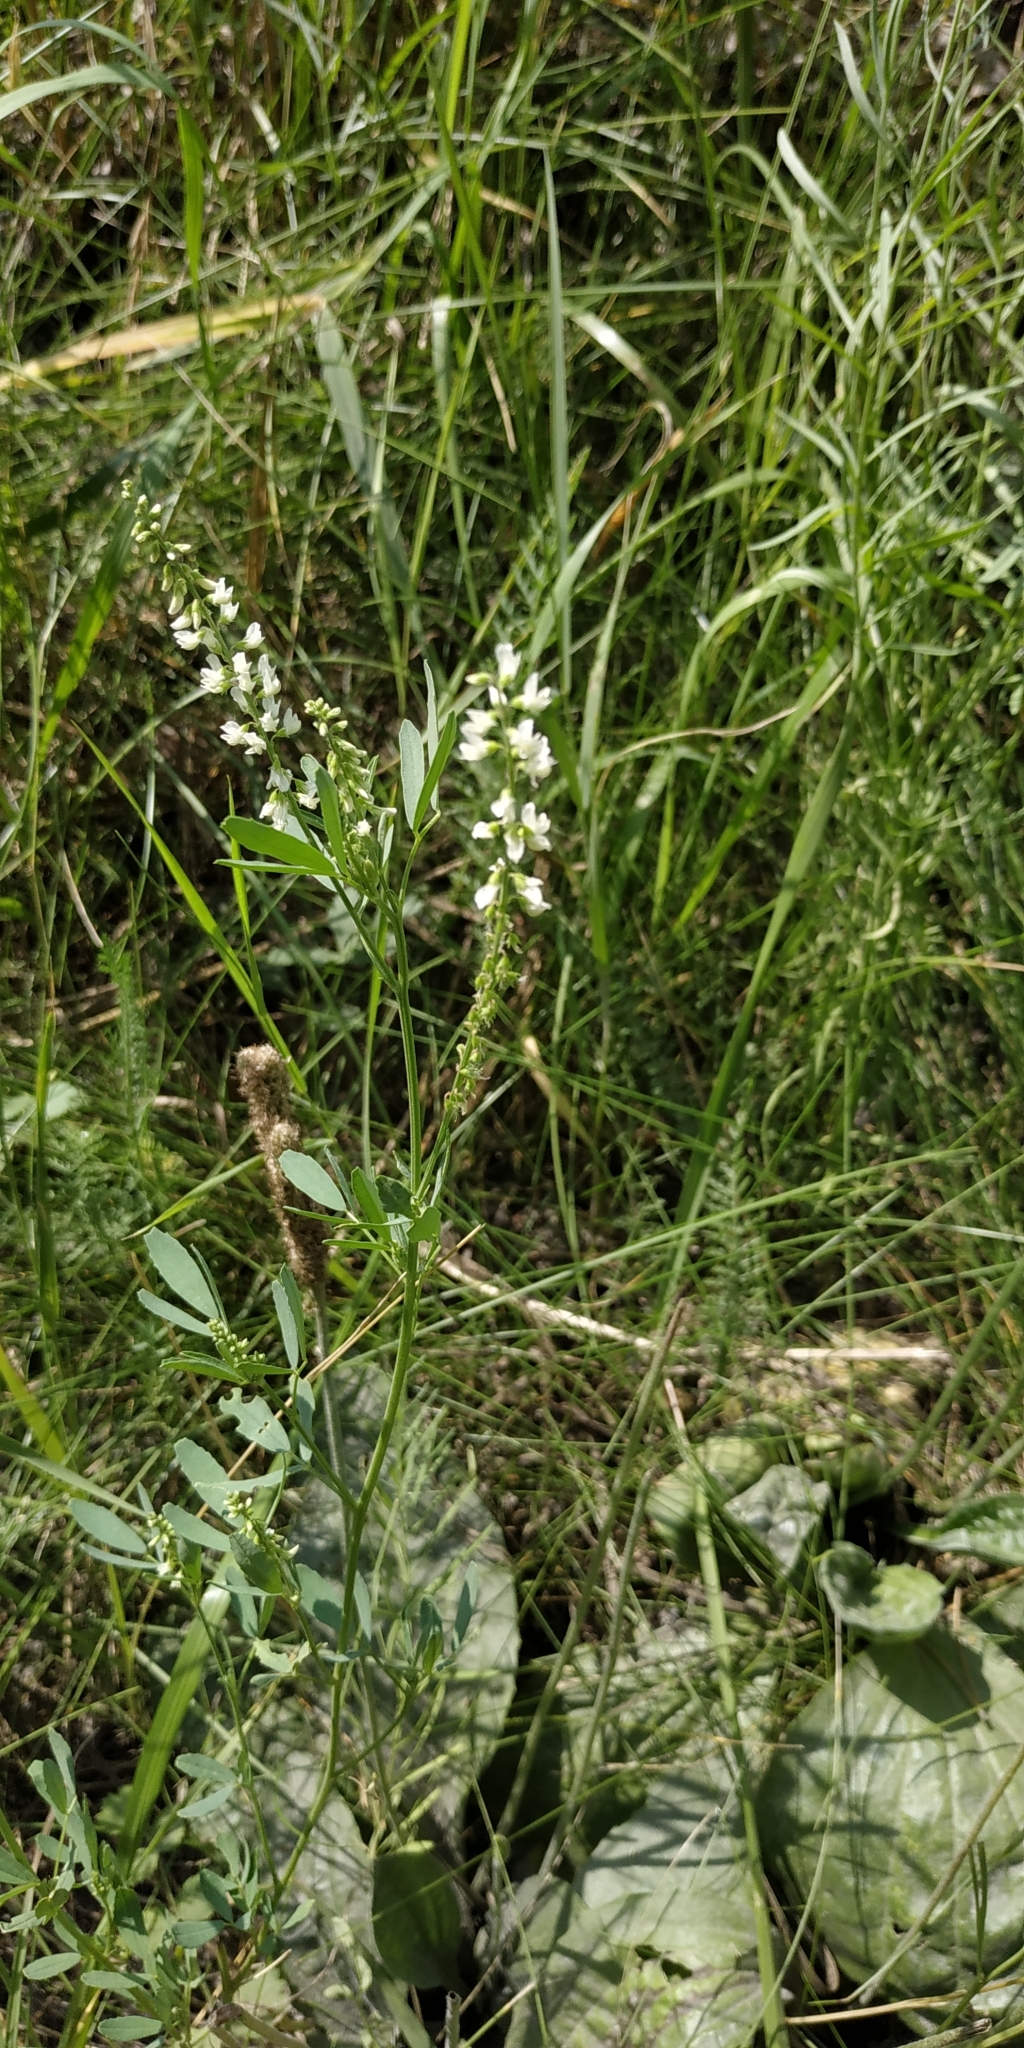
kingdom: Plantae
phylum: Tracheophyta
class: Magnoliopsida
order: Fabales
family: Fabaceae
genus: Melilotus
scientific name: Melilotus albus
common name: White melilot
